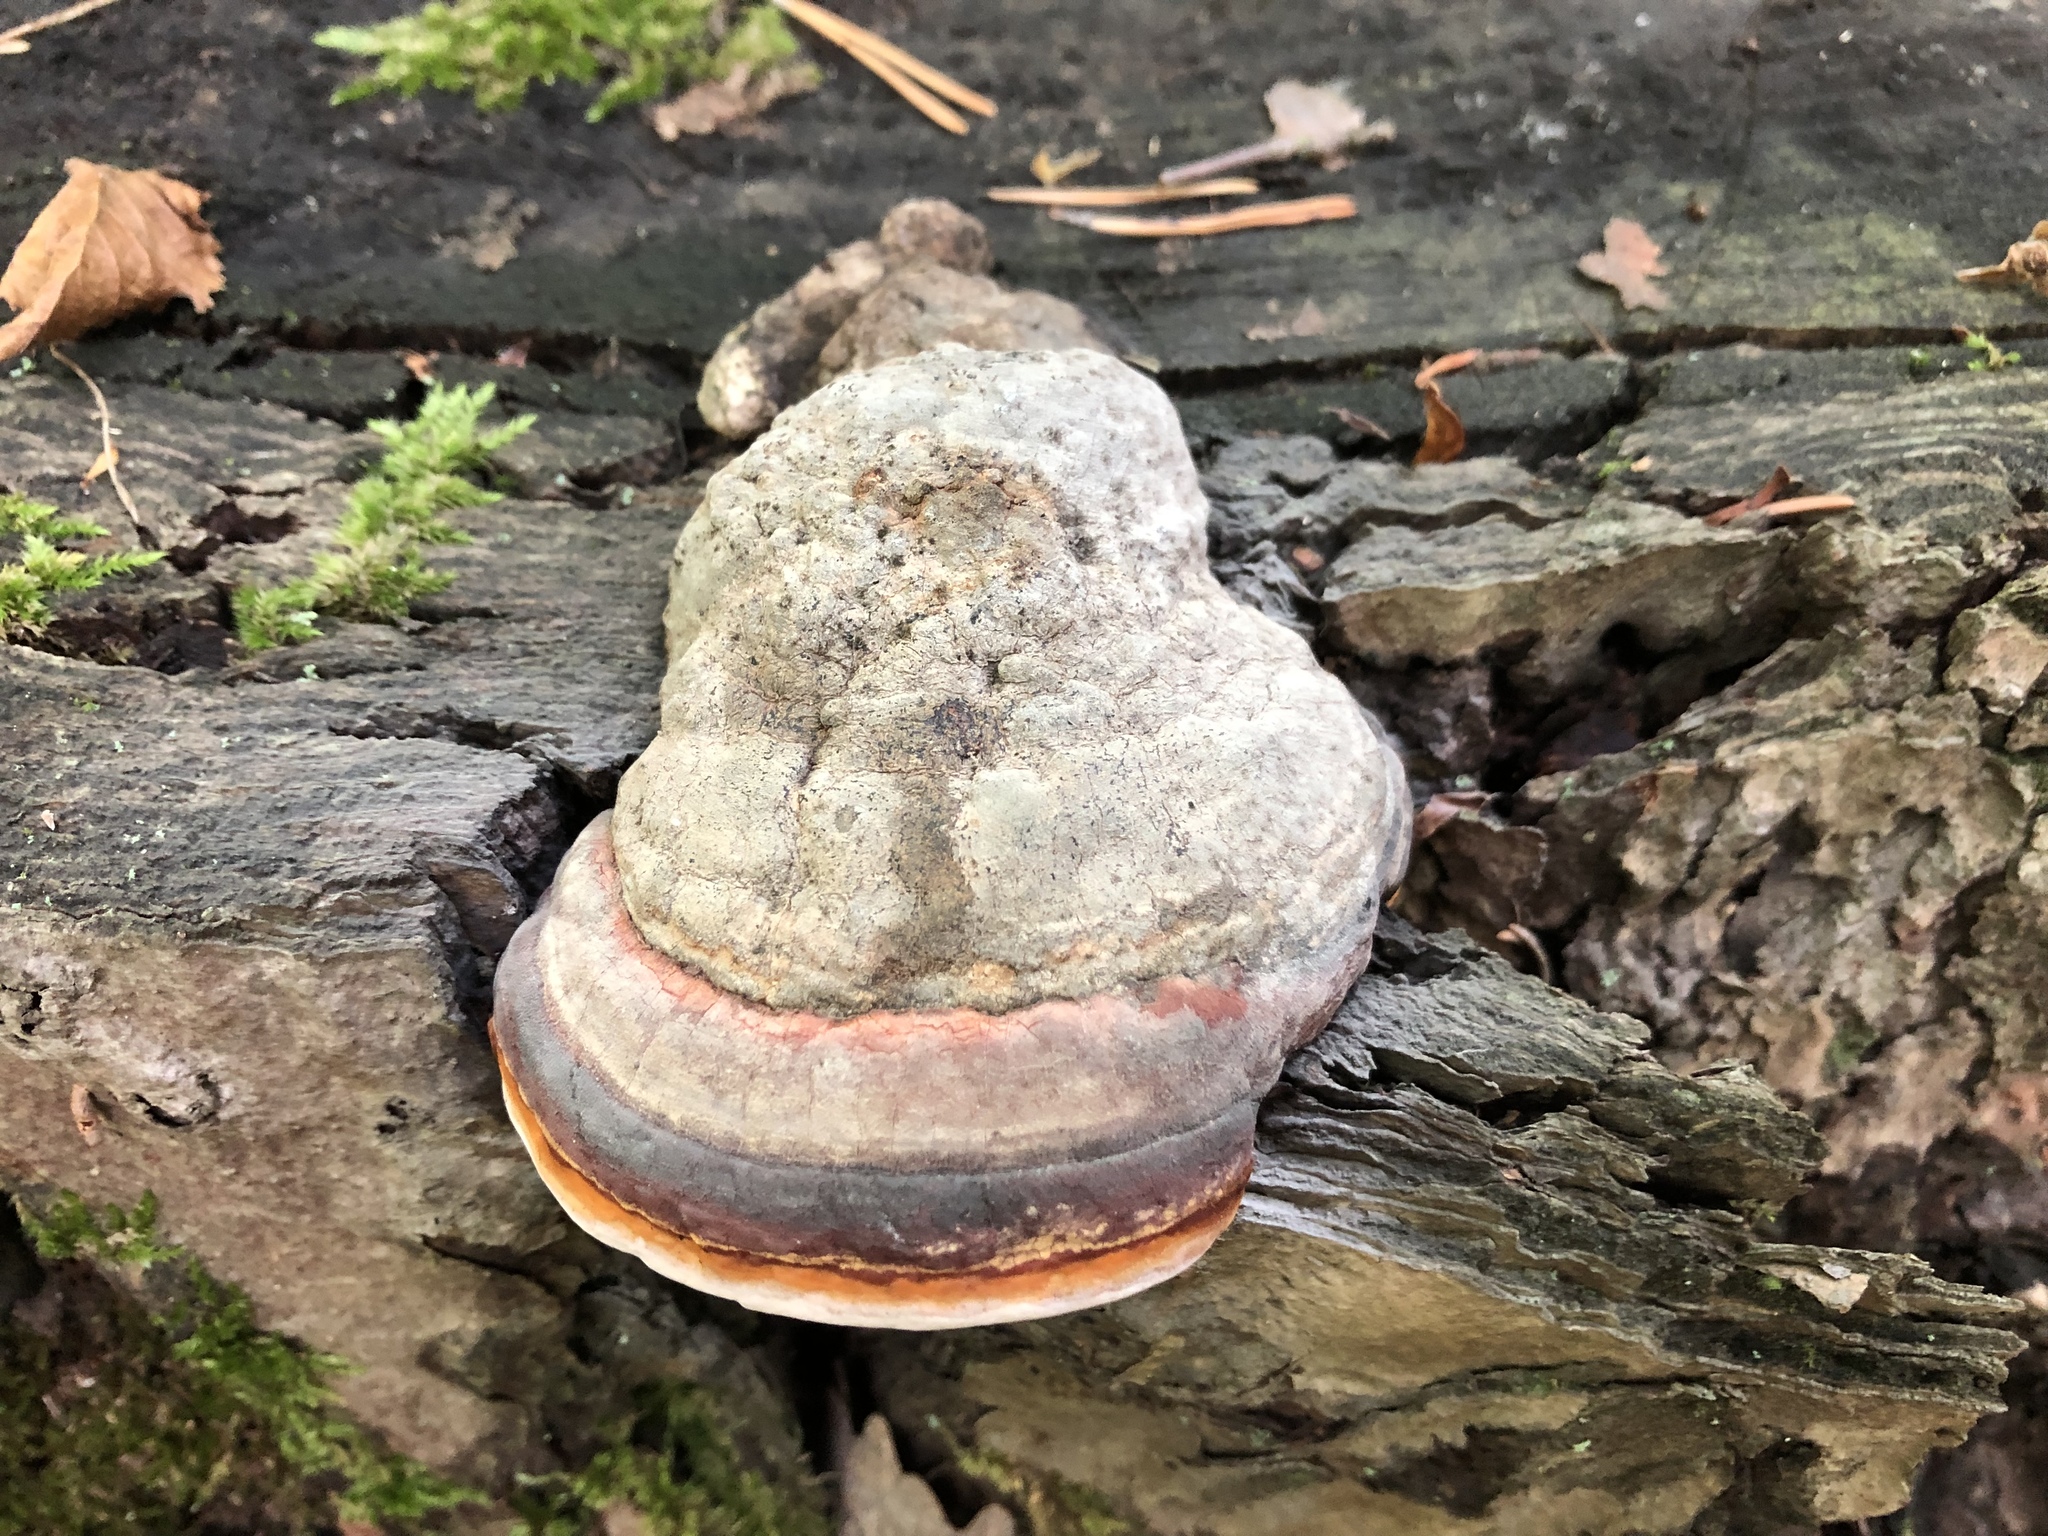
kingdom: Fungi
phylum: Basidiomycota
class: Agaricomycetes
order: Polyporales
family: Fomitopsidaceae
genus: Fomitopsis
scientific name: Fomitopsis pinicola
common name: Red-belted bracket
